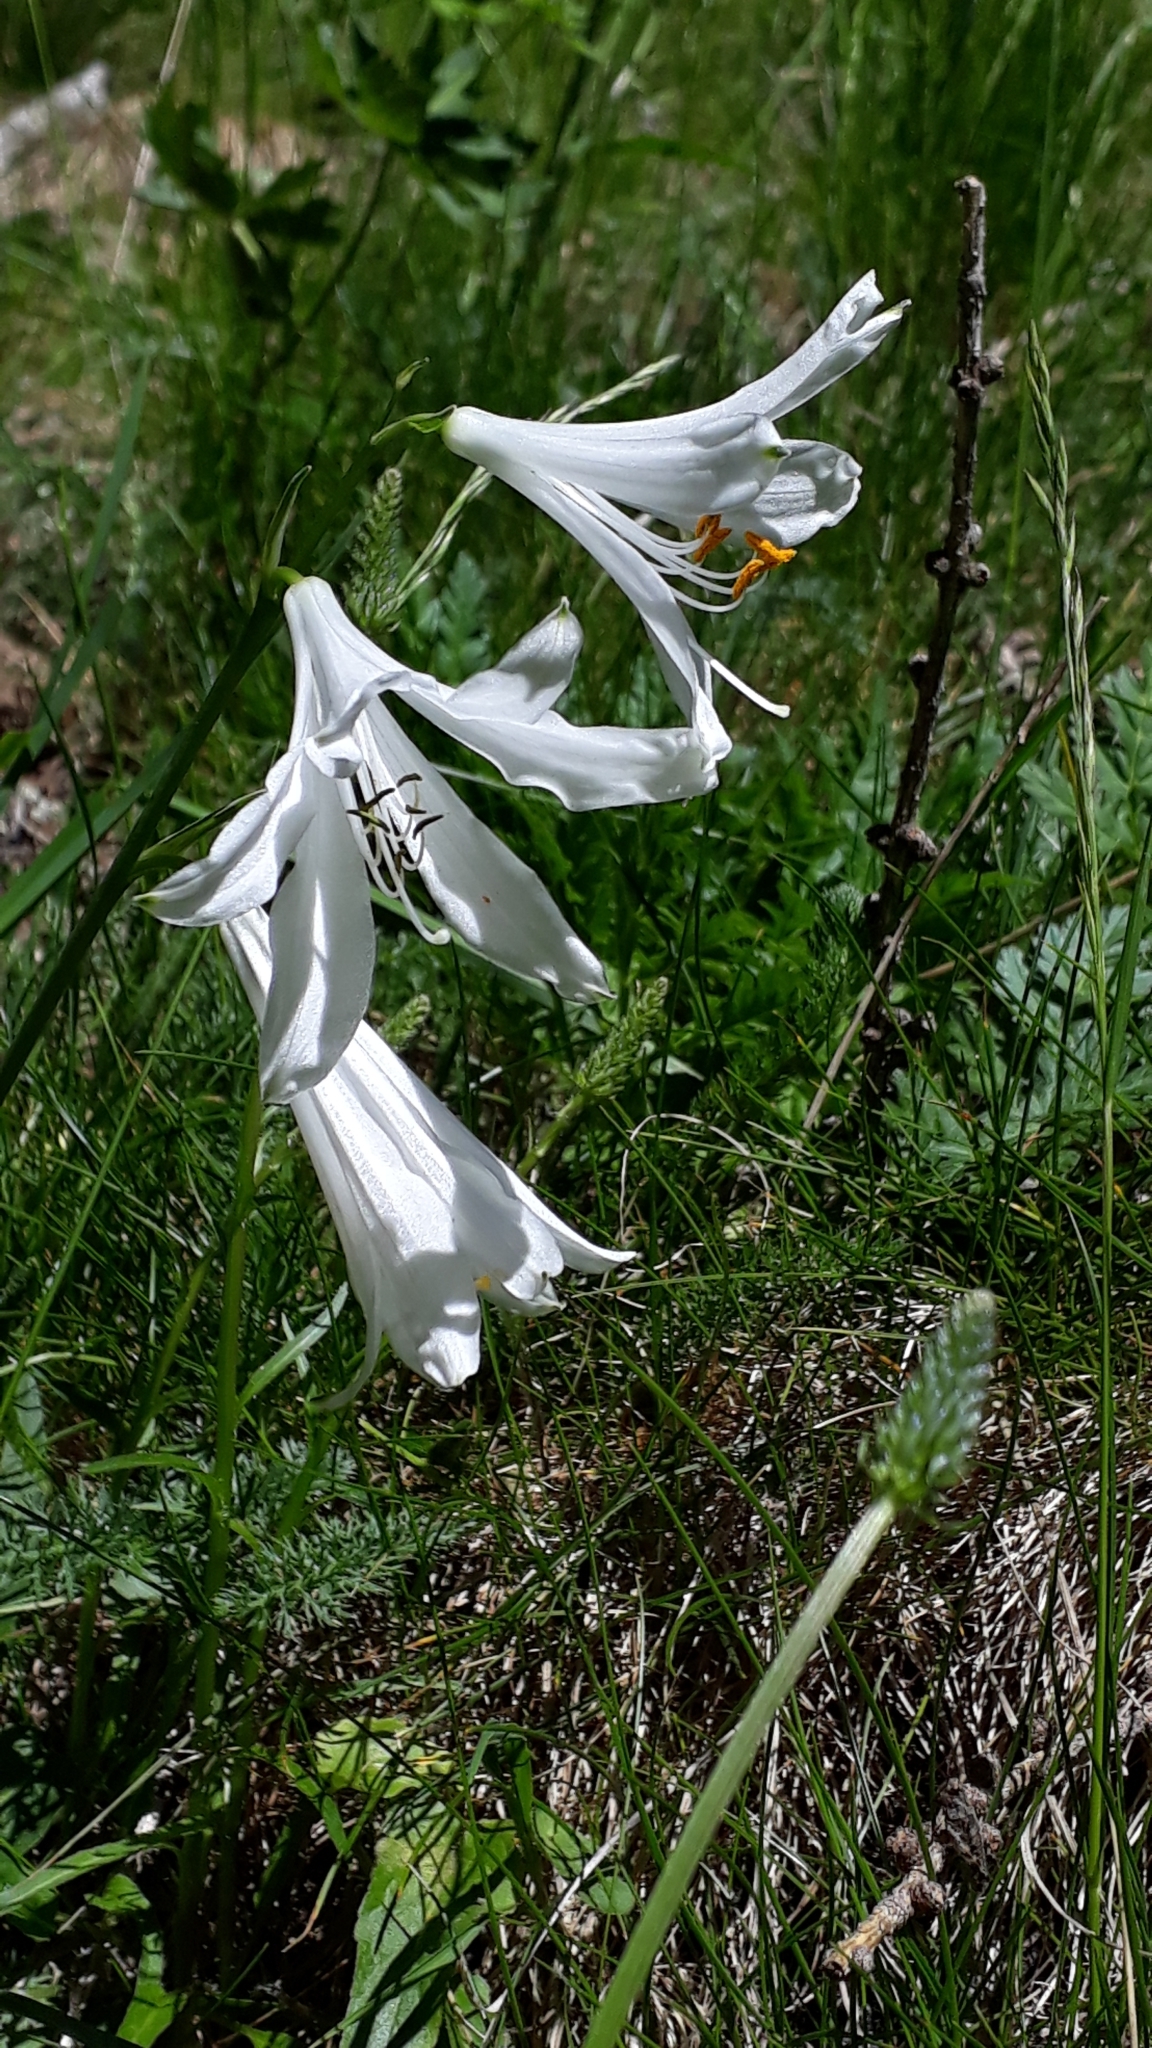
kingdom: Plantae
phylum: Tracheophyta
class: Liliopsida
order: Asparagales
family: Asparagaceae
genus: Paradisea
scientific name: Paradisea liliastrum
